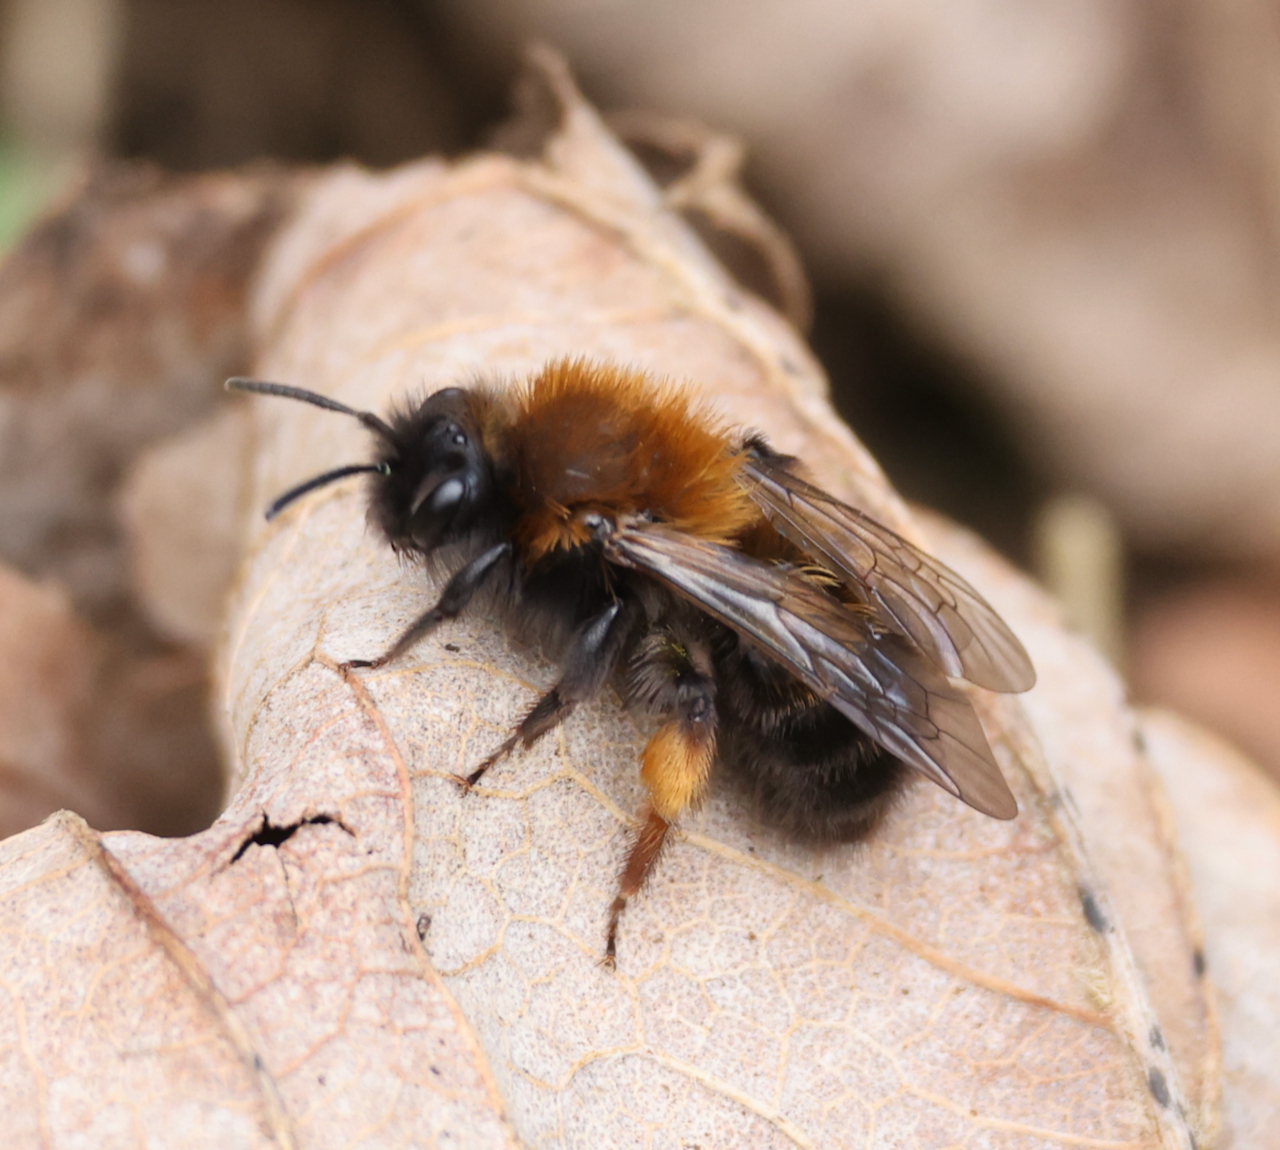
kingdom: Animalia
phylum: Arthropoda
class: Insecta
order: Hymenoptera
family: Andrenidae
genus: Andrena
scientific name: Andrena clarkella
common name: Clarke's mining bee
